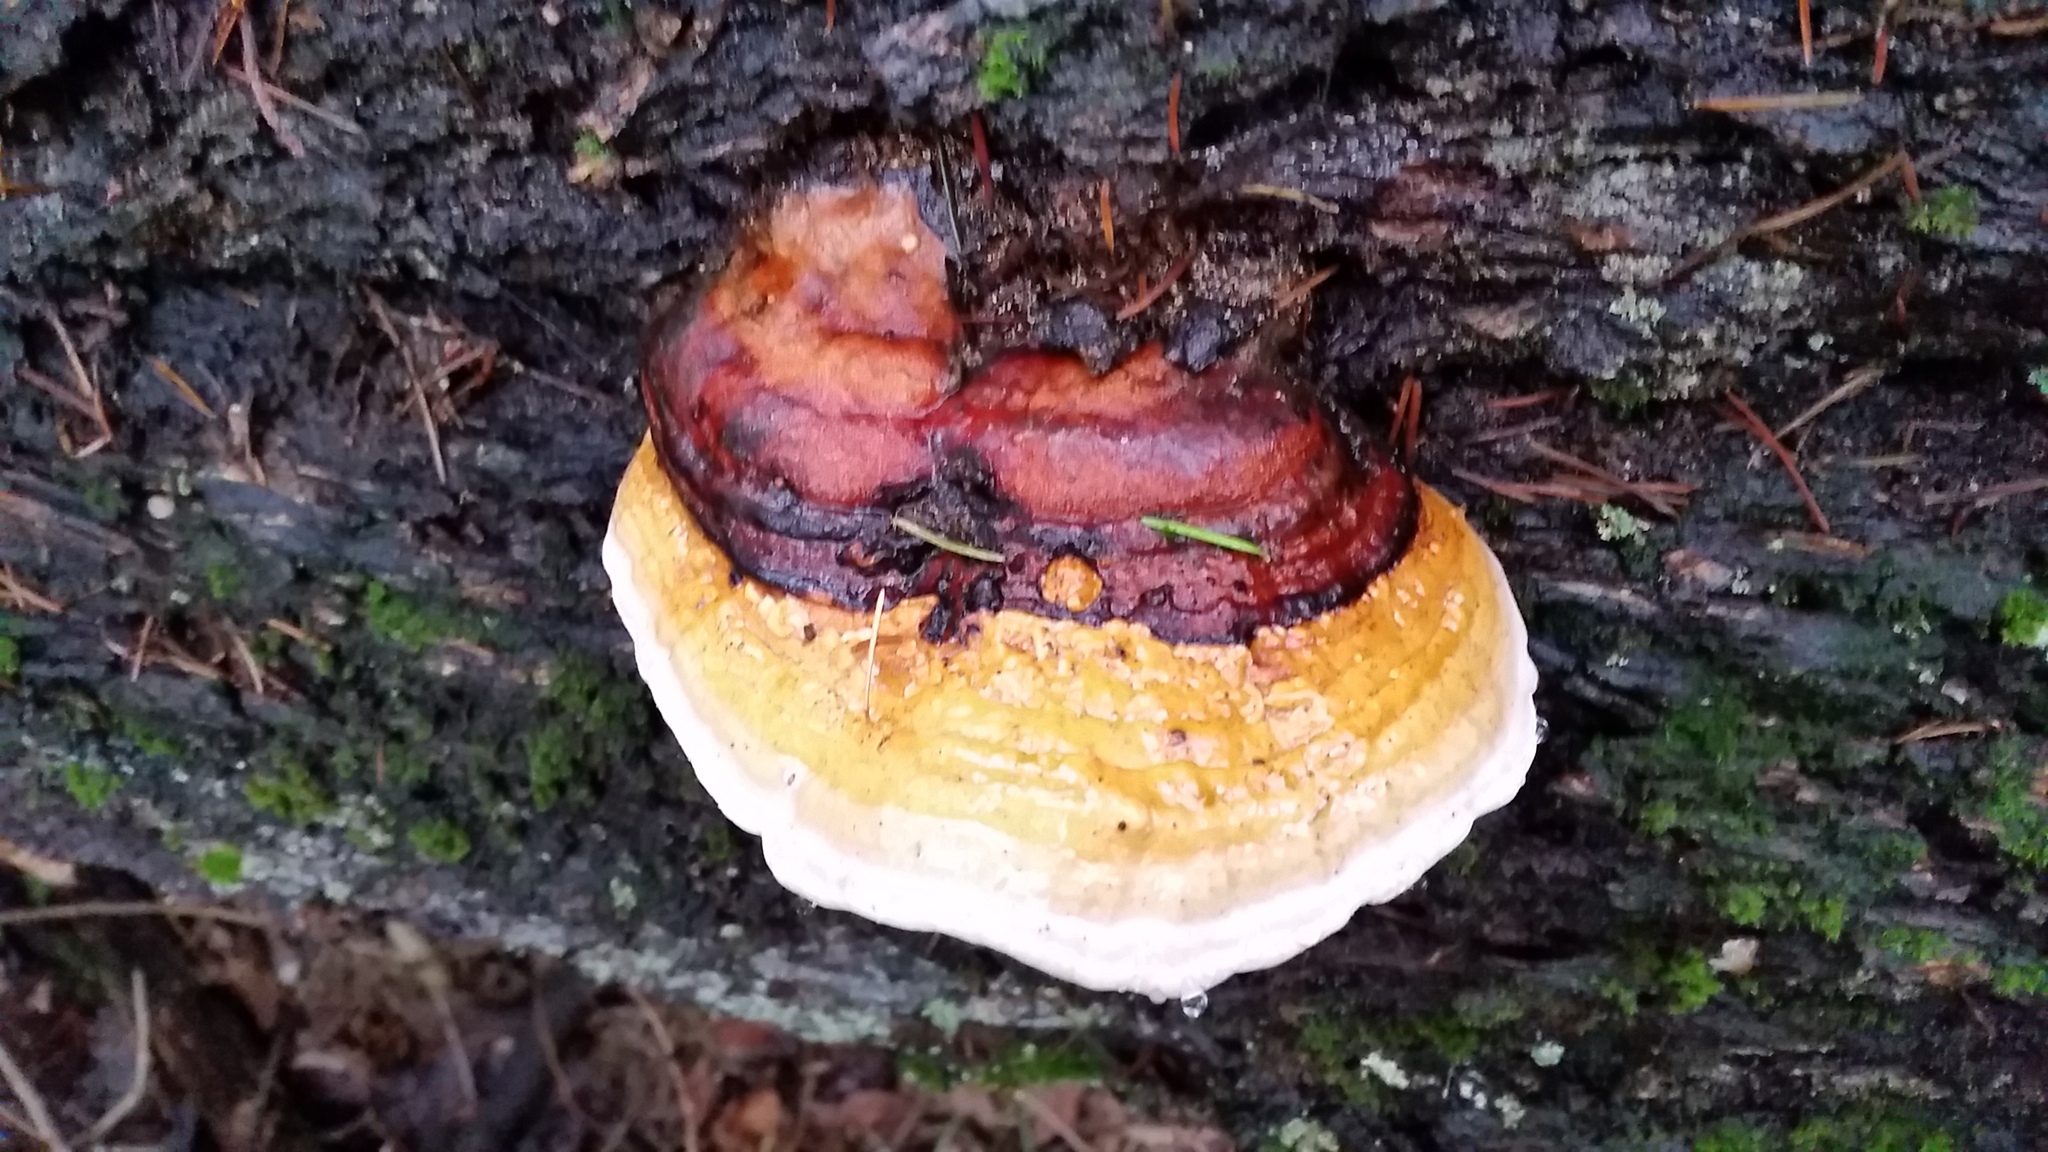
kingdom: Fungi
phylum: Basidiomycota
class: Agaricomycetes
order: Polyporales
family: Fomitopsidaceae
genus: Fomitopsis
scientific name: Fomitopsis pinicola
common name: Red-belted bracket
